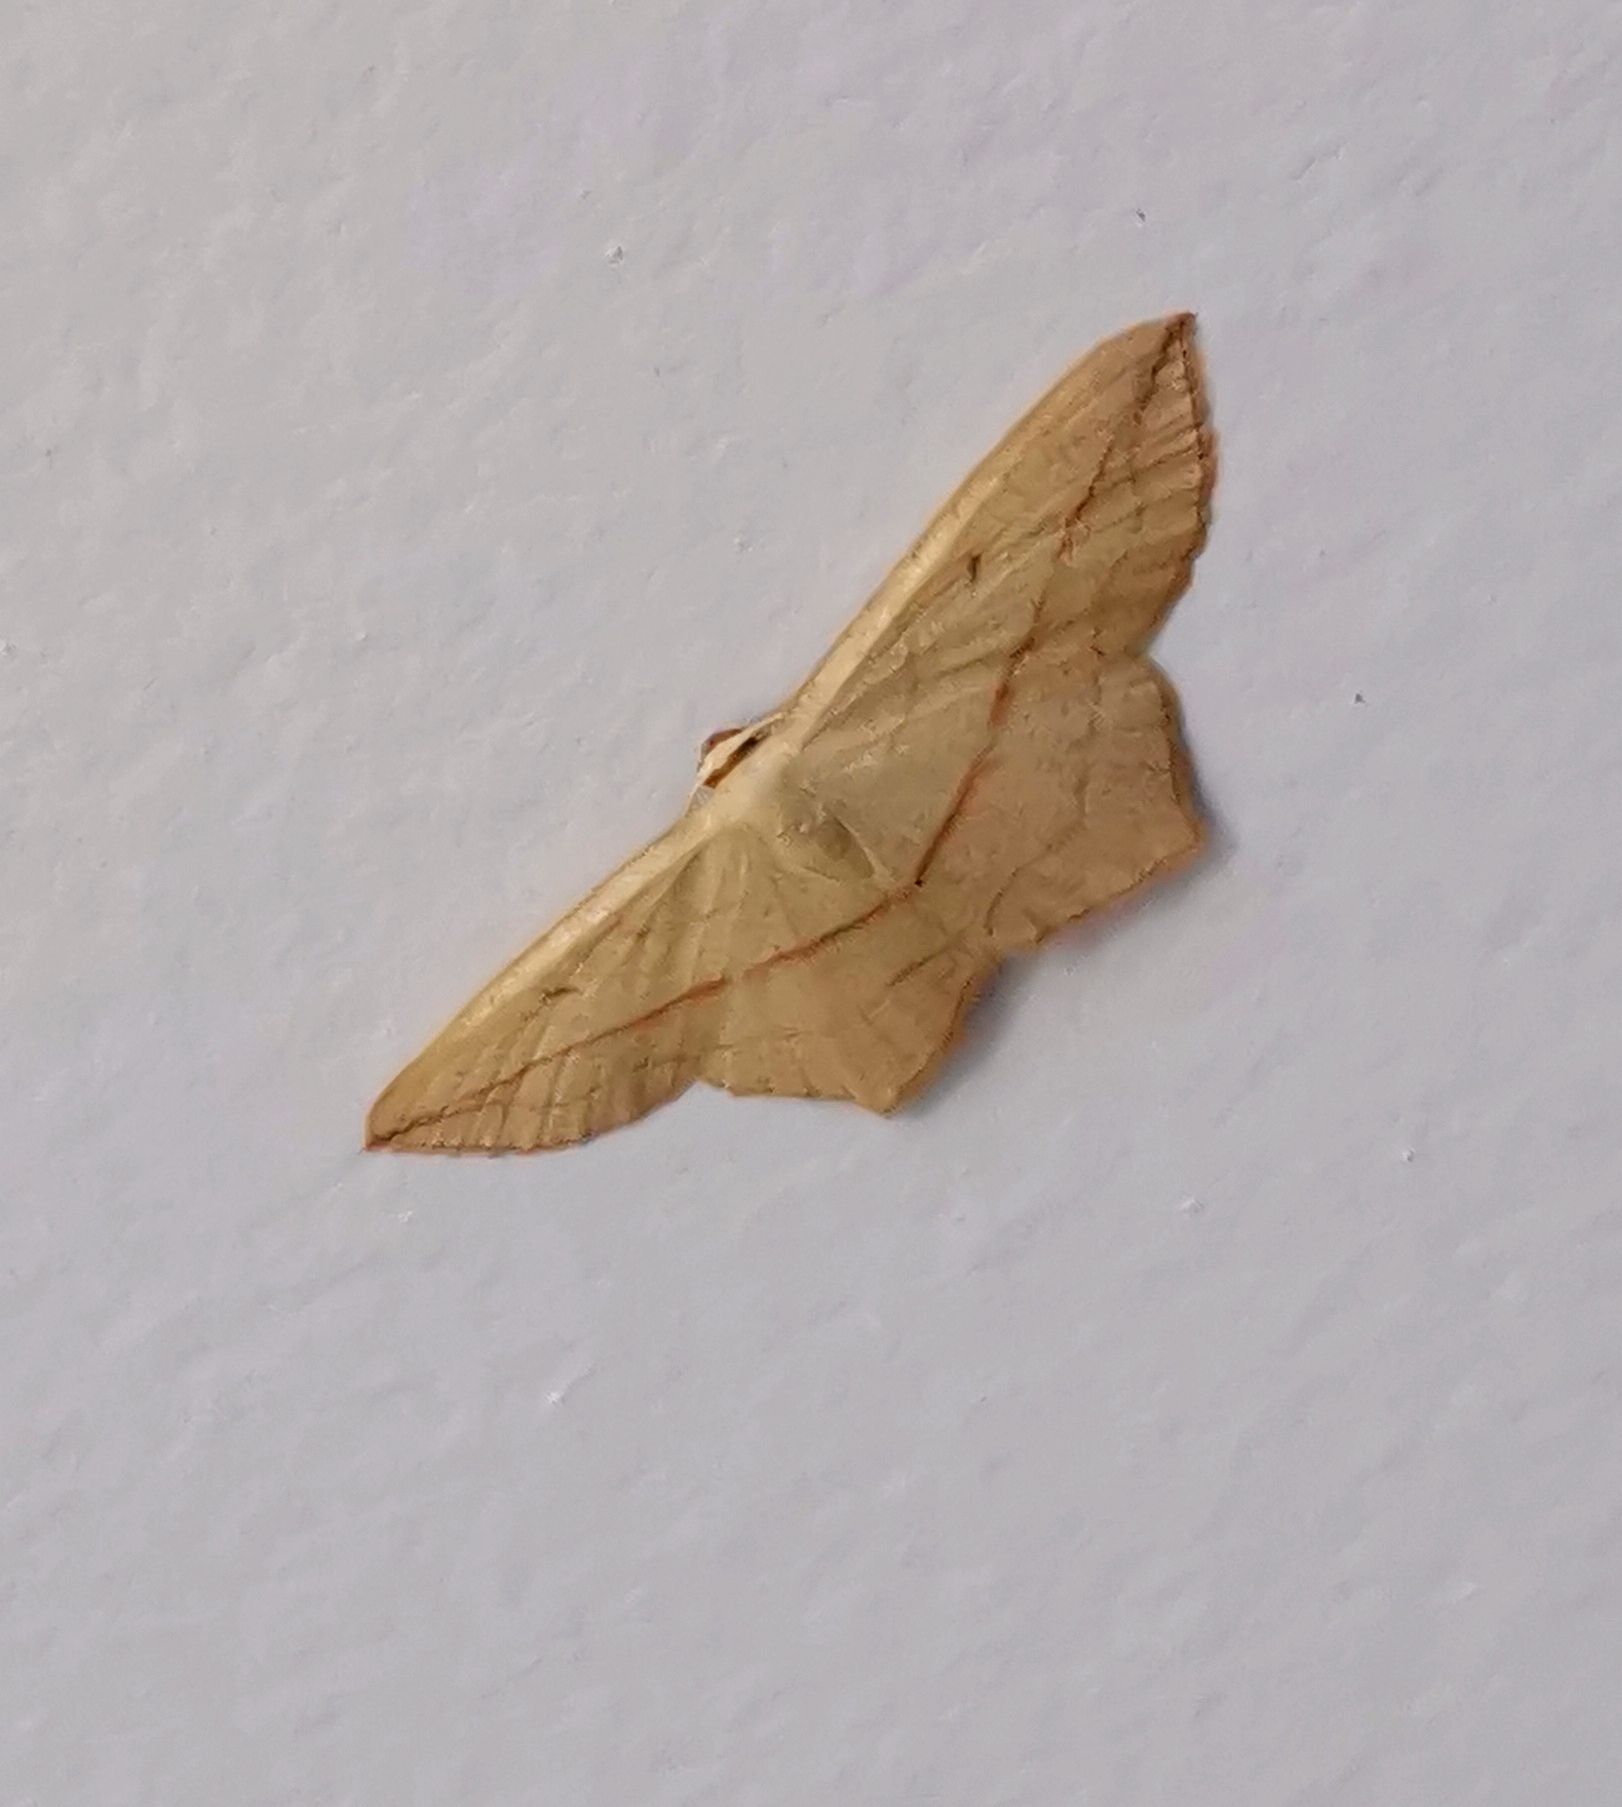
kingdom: Animalia
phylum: Arthropoda
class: Insecta
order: Lepidoptera
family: Geometridae
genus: Timandra
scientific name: Timandra comae
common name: Blood-vein
